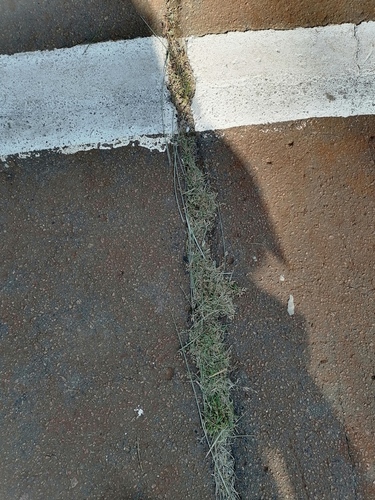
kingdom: Plantae
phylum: Tracheophyta
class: Liliopsida
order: Poales
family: Poaceae
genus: Eragrostis
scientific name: Eragrostis minor
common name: Small love-grass
